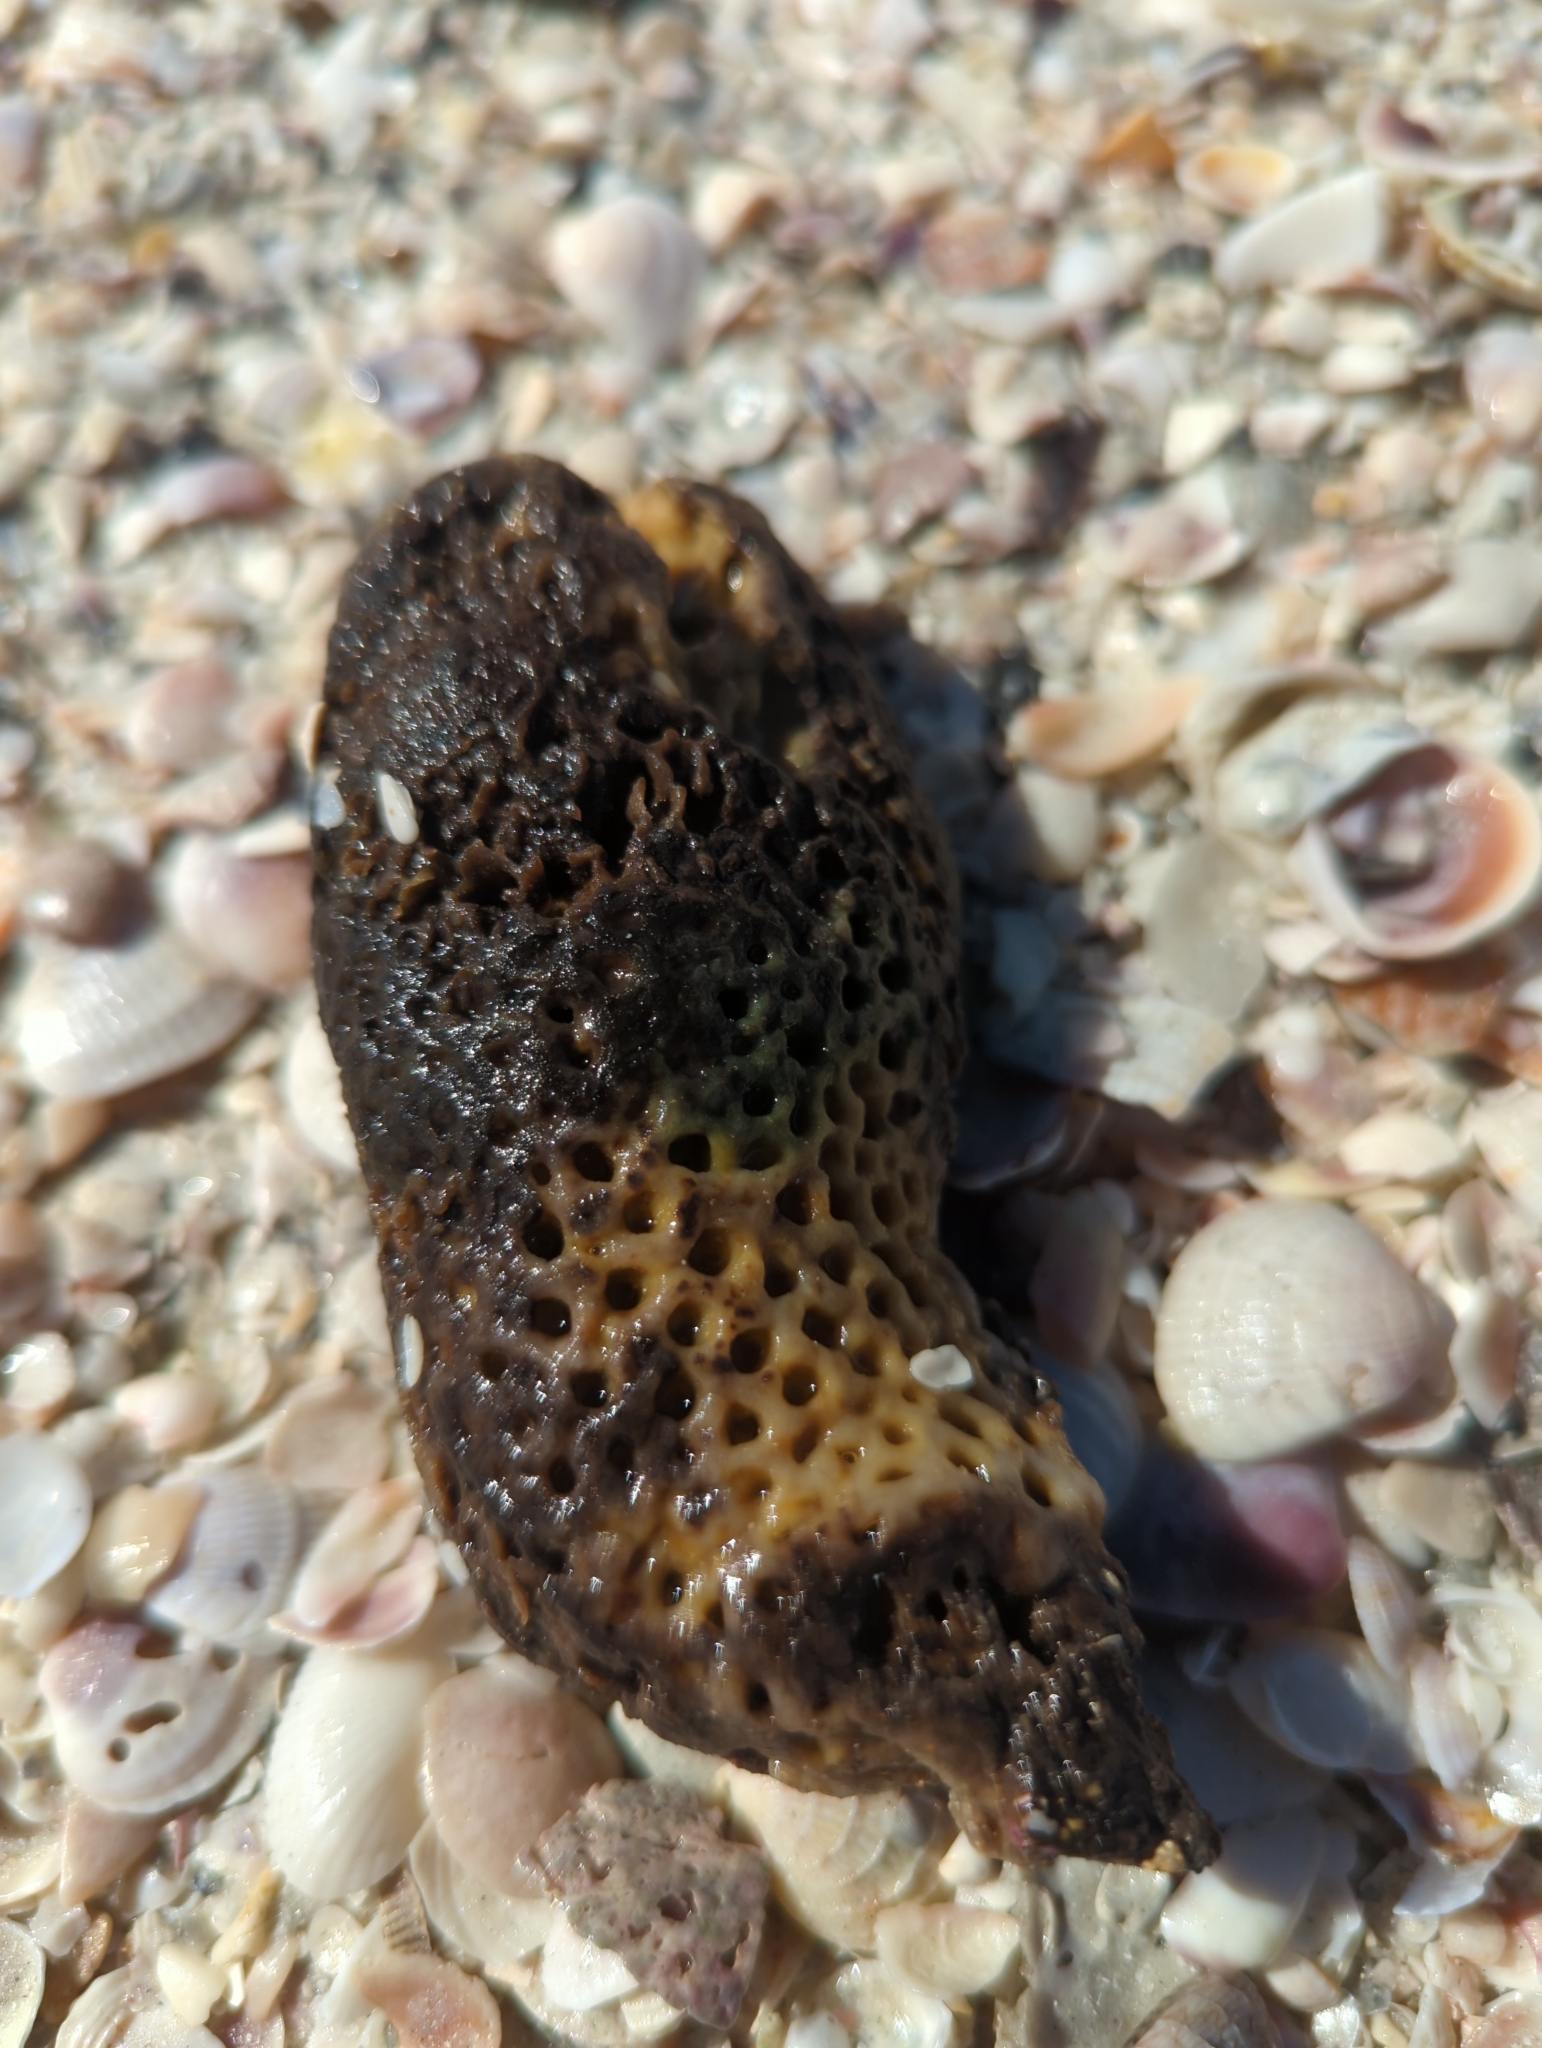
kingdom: Animalia
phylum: Porifera
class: Demospongiae
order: Clionaida
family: Clionaidae
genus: Cliona
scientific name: Cliona celata
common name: Boring sponge
